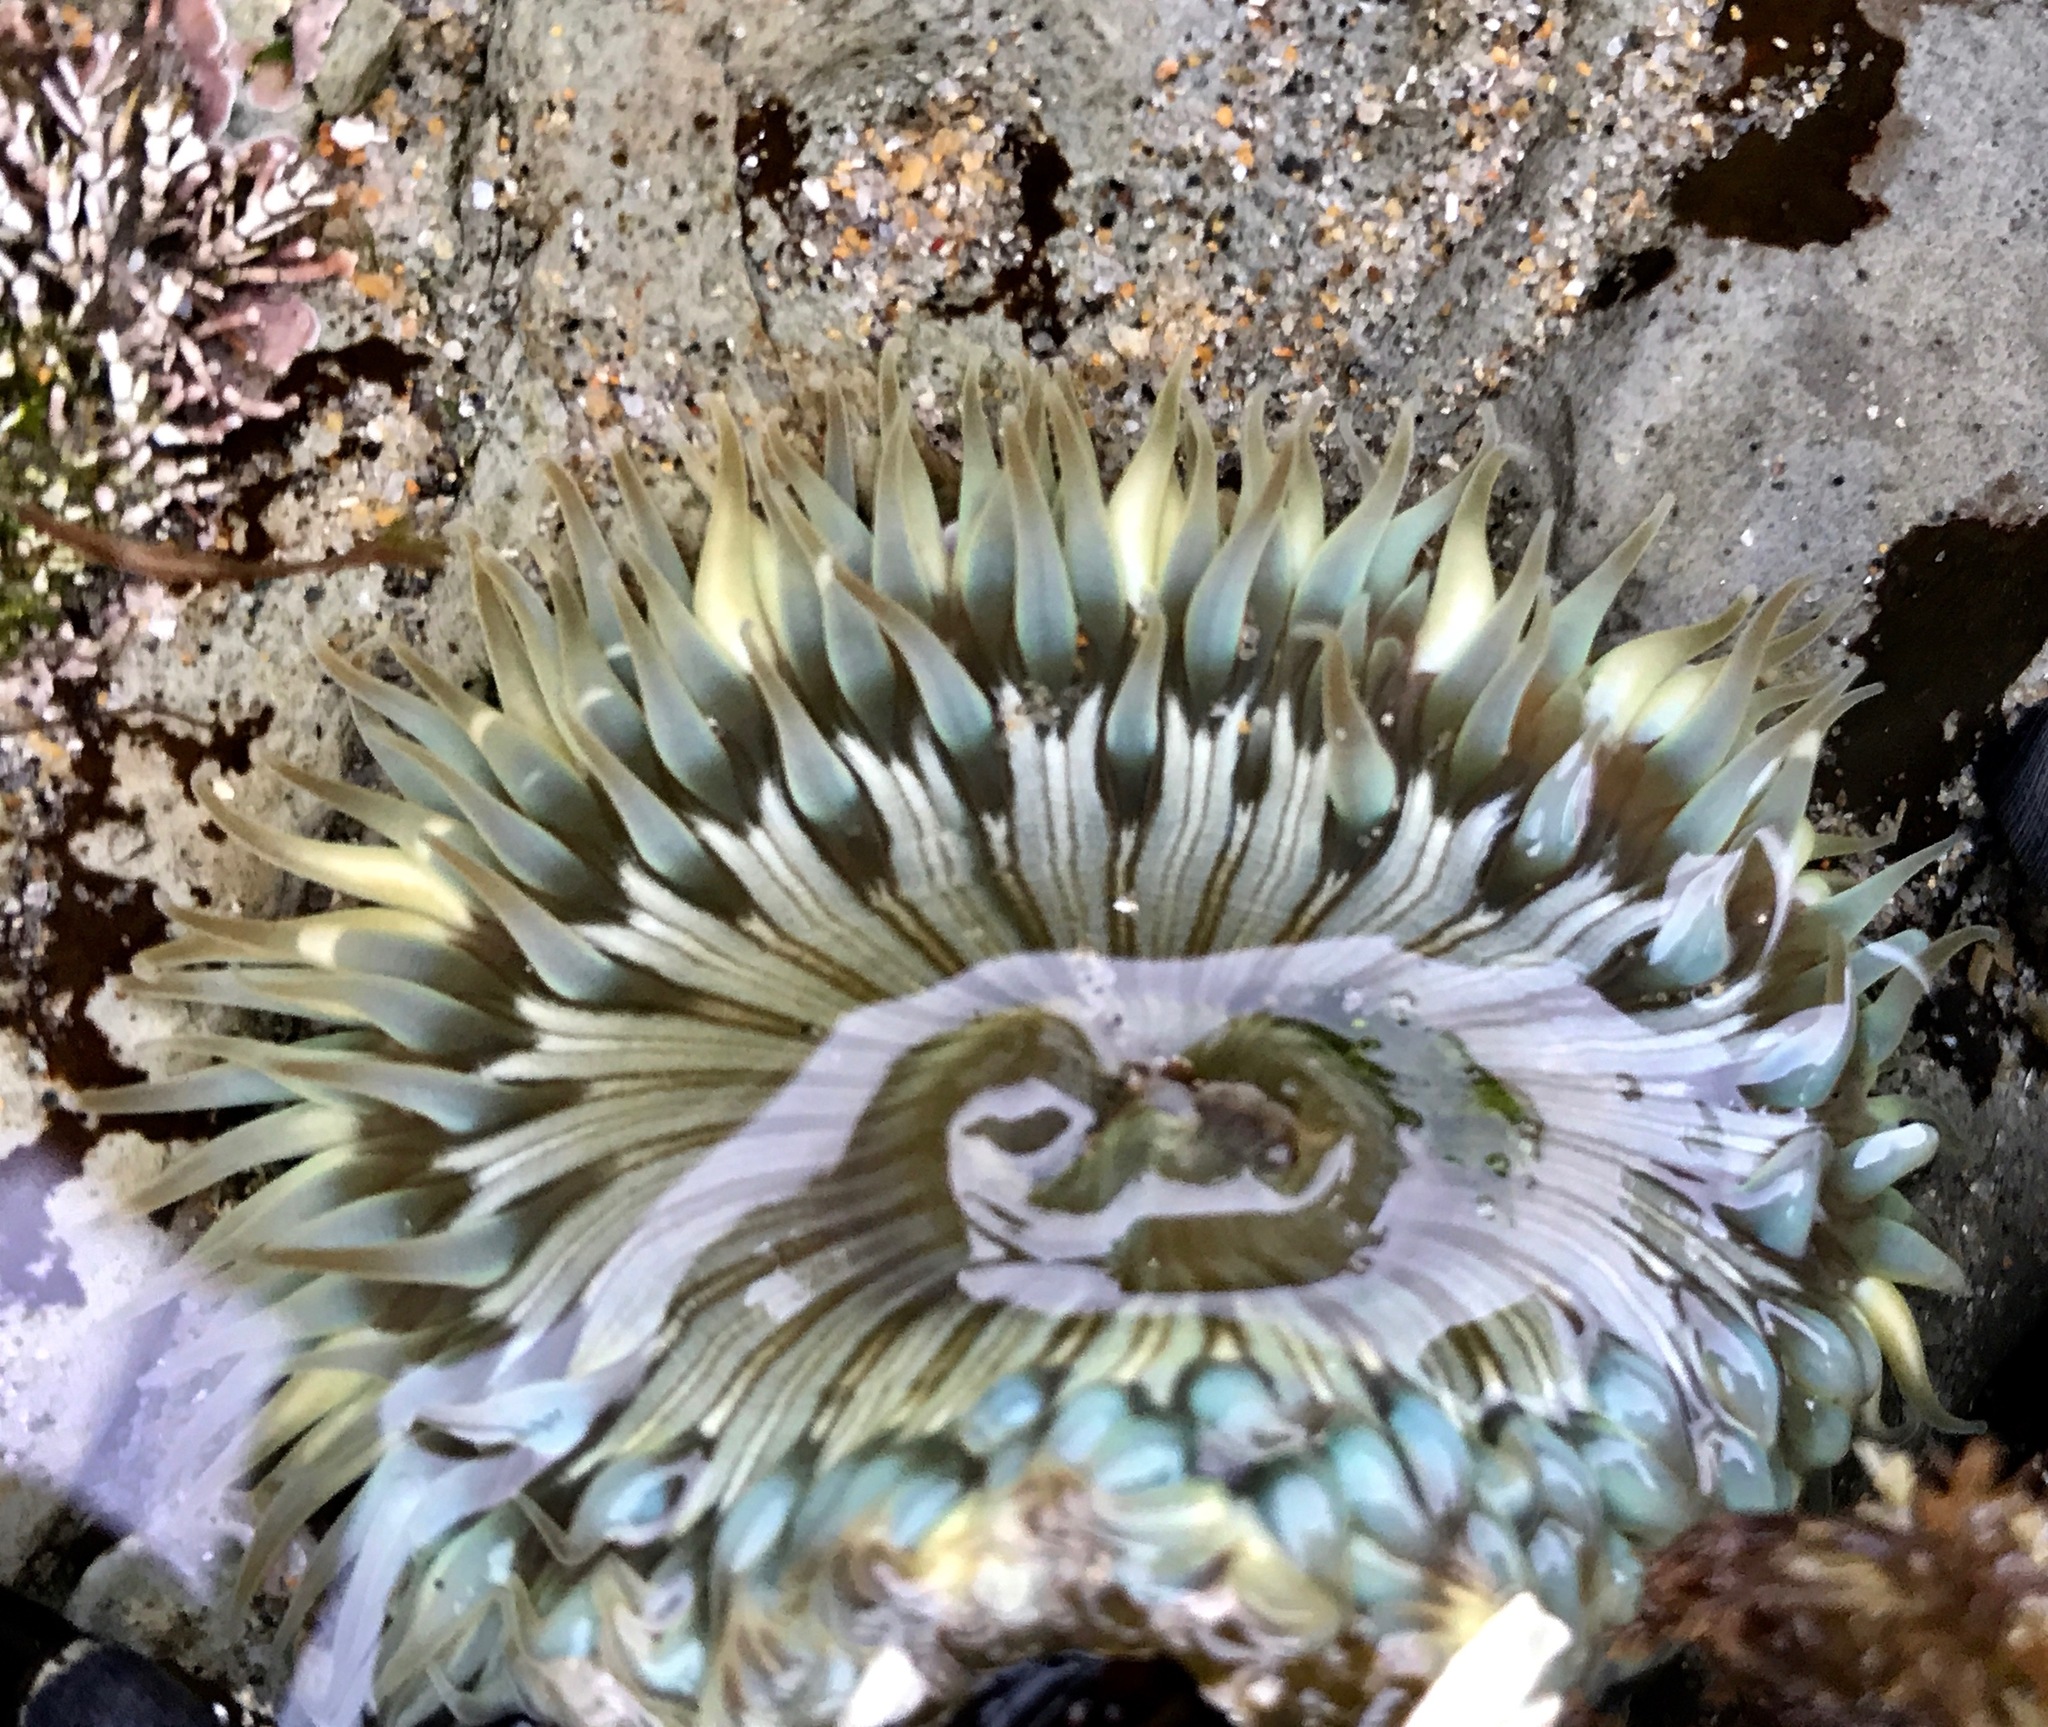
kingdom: Animalia
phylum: Cnidaria
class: Anthozoa
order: Actiniaria
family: Actiniidae
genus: Anthopleura
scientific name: Anthopleura sola
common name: Sun anemone
